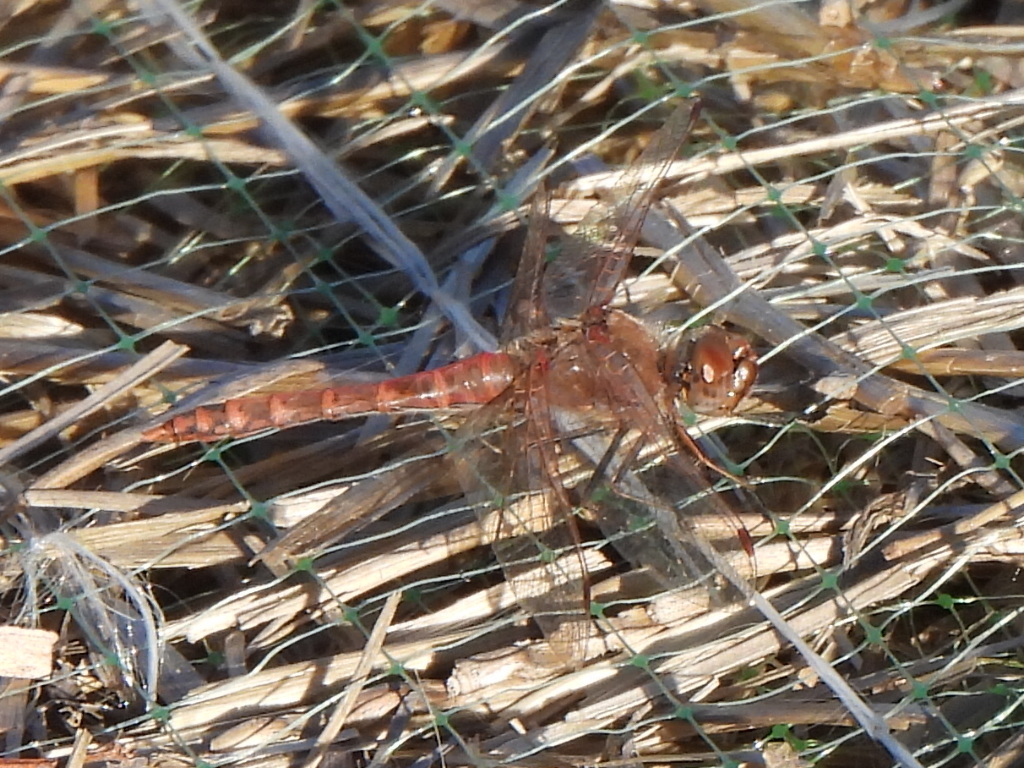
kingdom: Animalia
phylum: Arthropoda
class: Insecta
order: Odonata
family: Libellulidae
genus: Sympetrum
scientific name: Sympetrum corruptum
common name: Variegated meadowhawk
